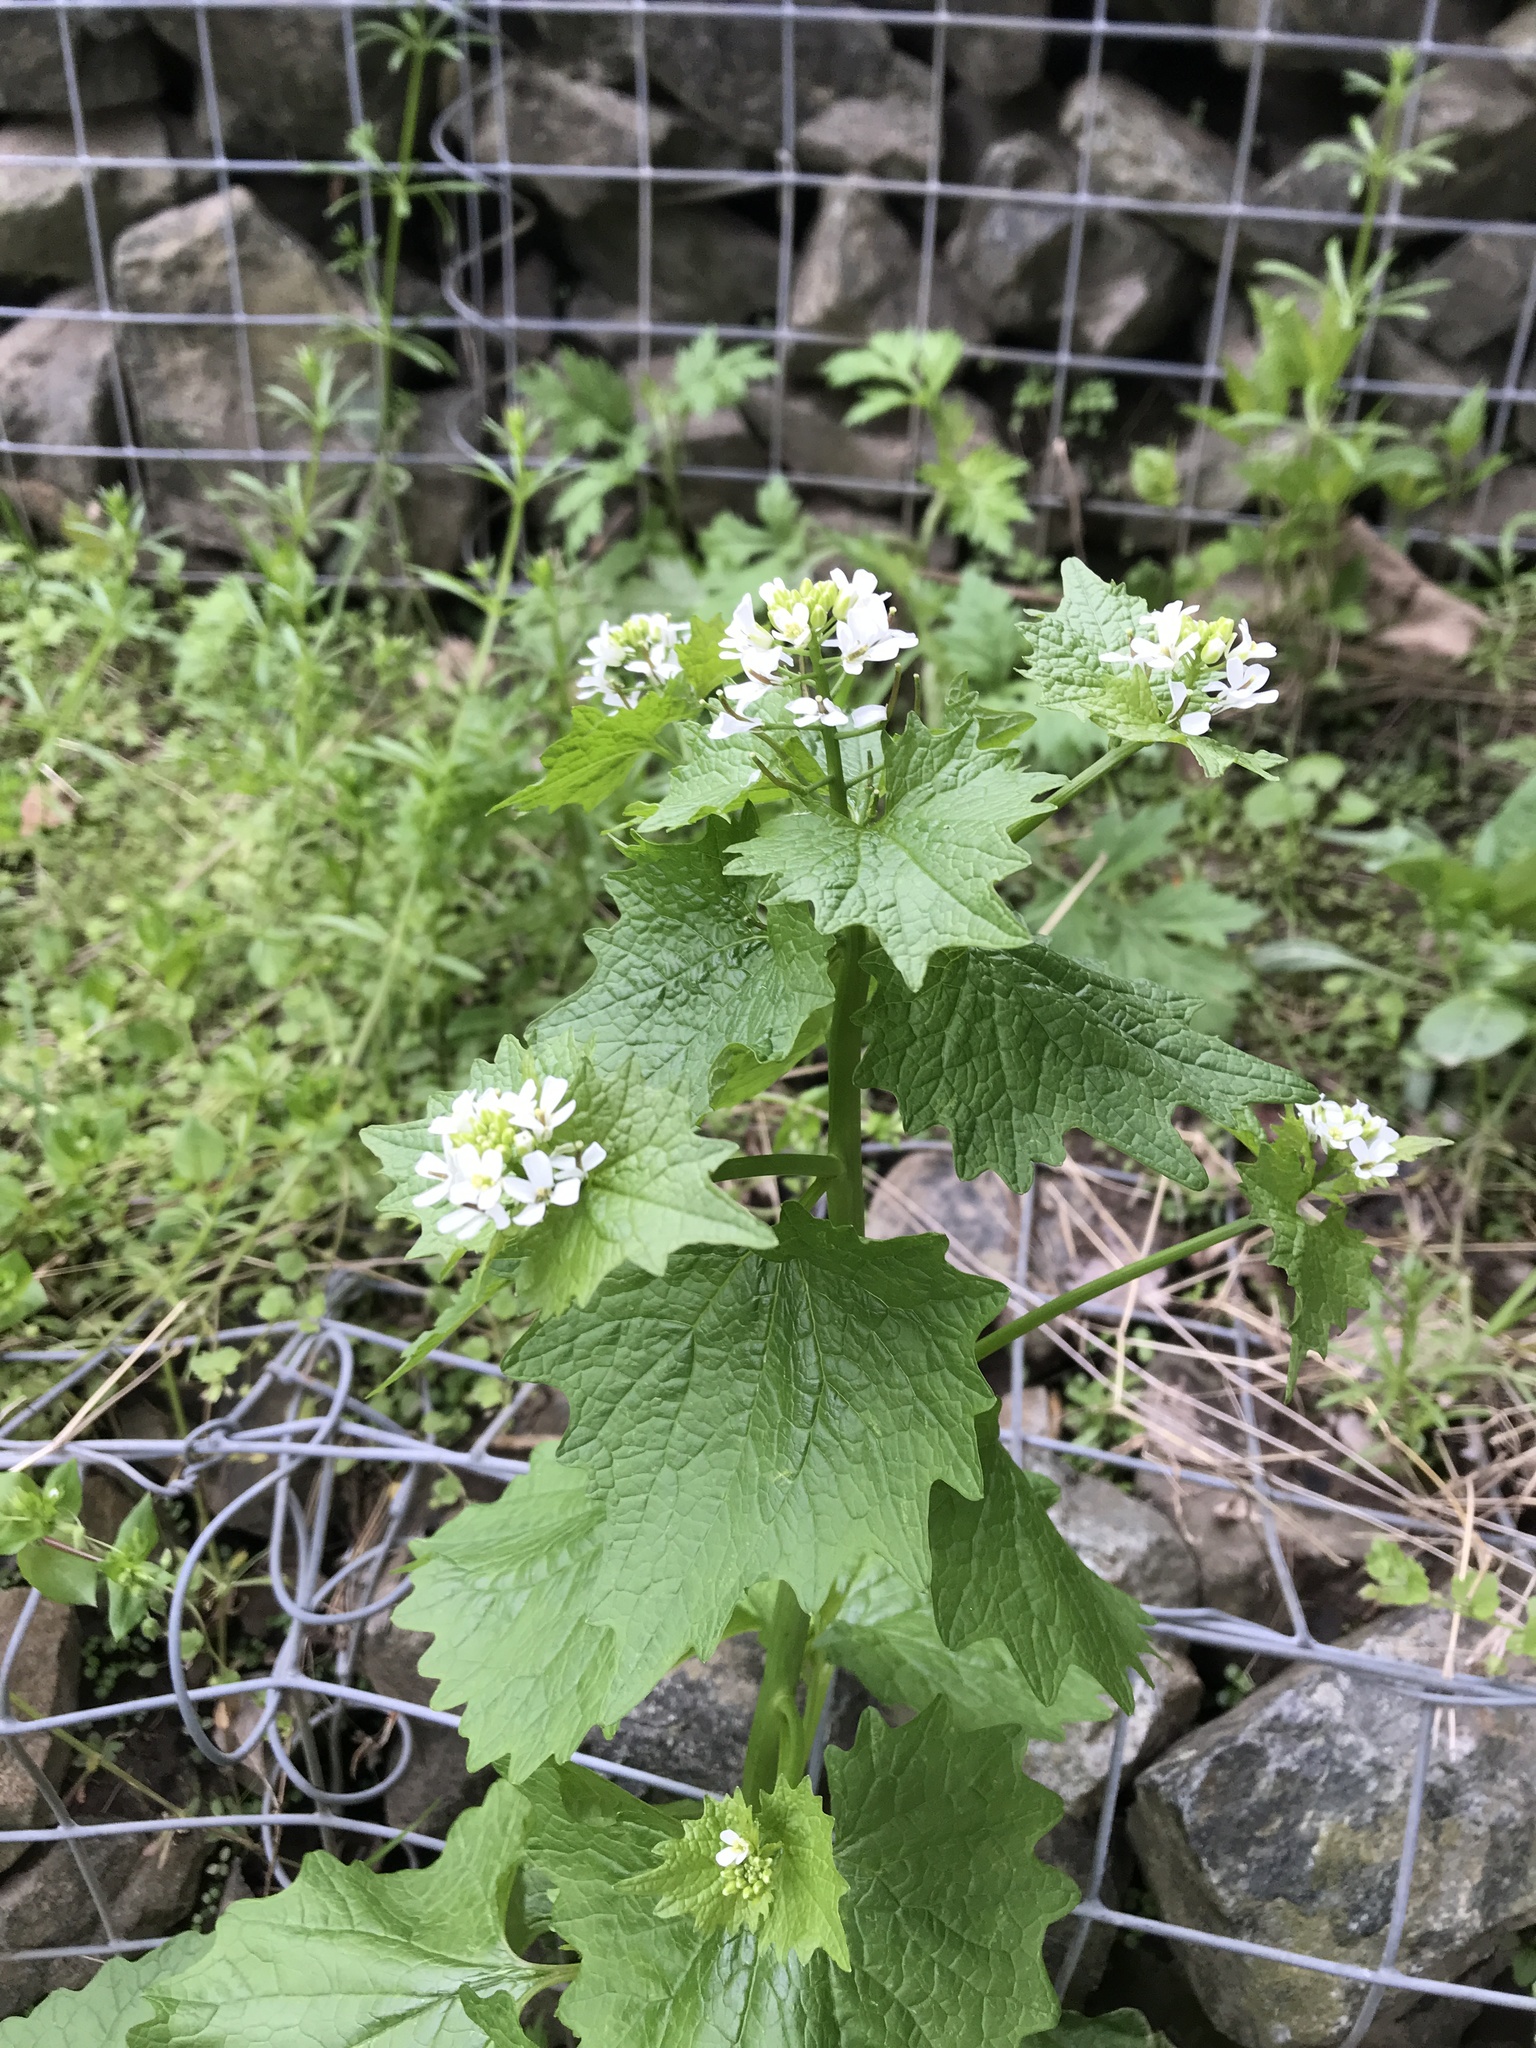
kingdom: Plantae
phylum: Tracheophyta
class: Magnoliopsida
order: Brassicales
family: Brassicaceae
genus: Alliaria
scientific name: Alliaria petiolata
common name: Garlic mustard
